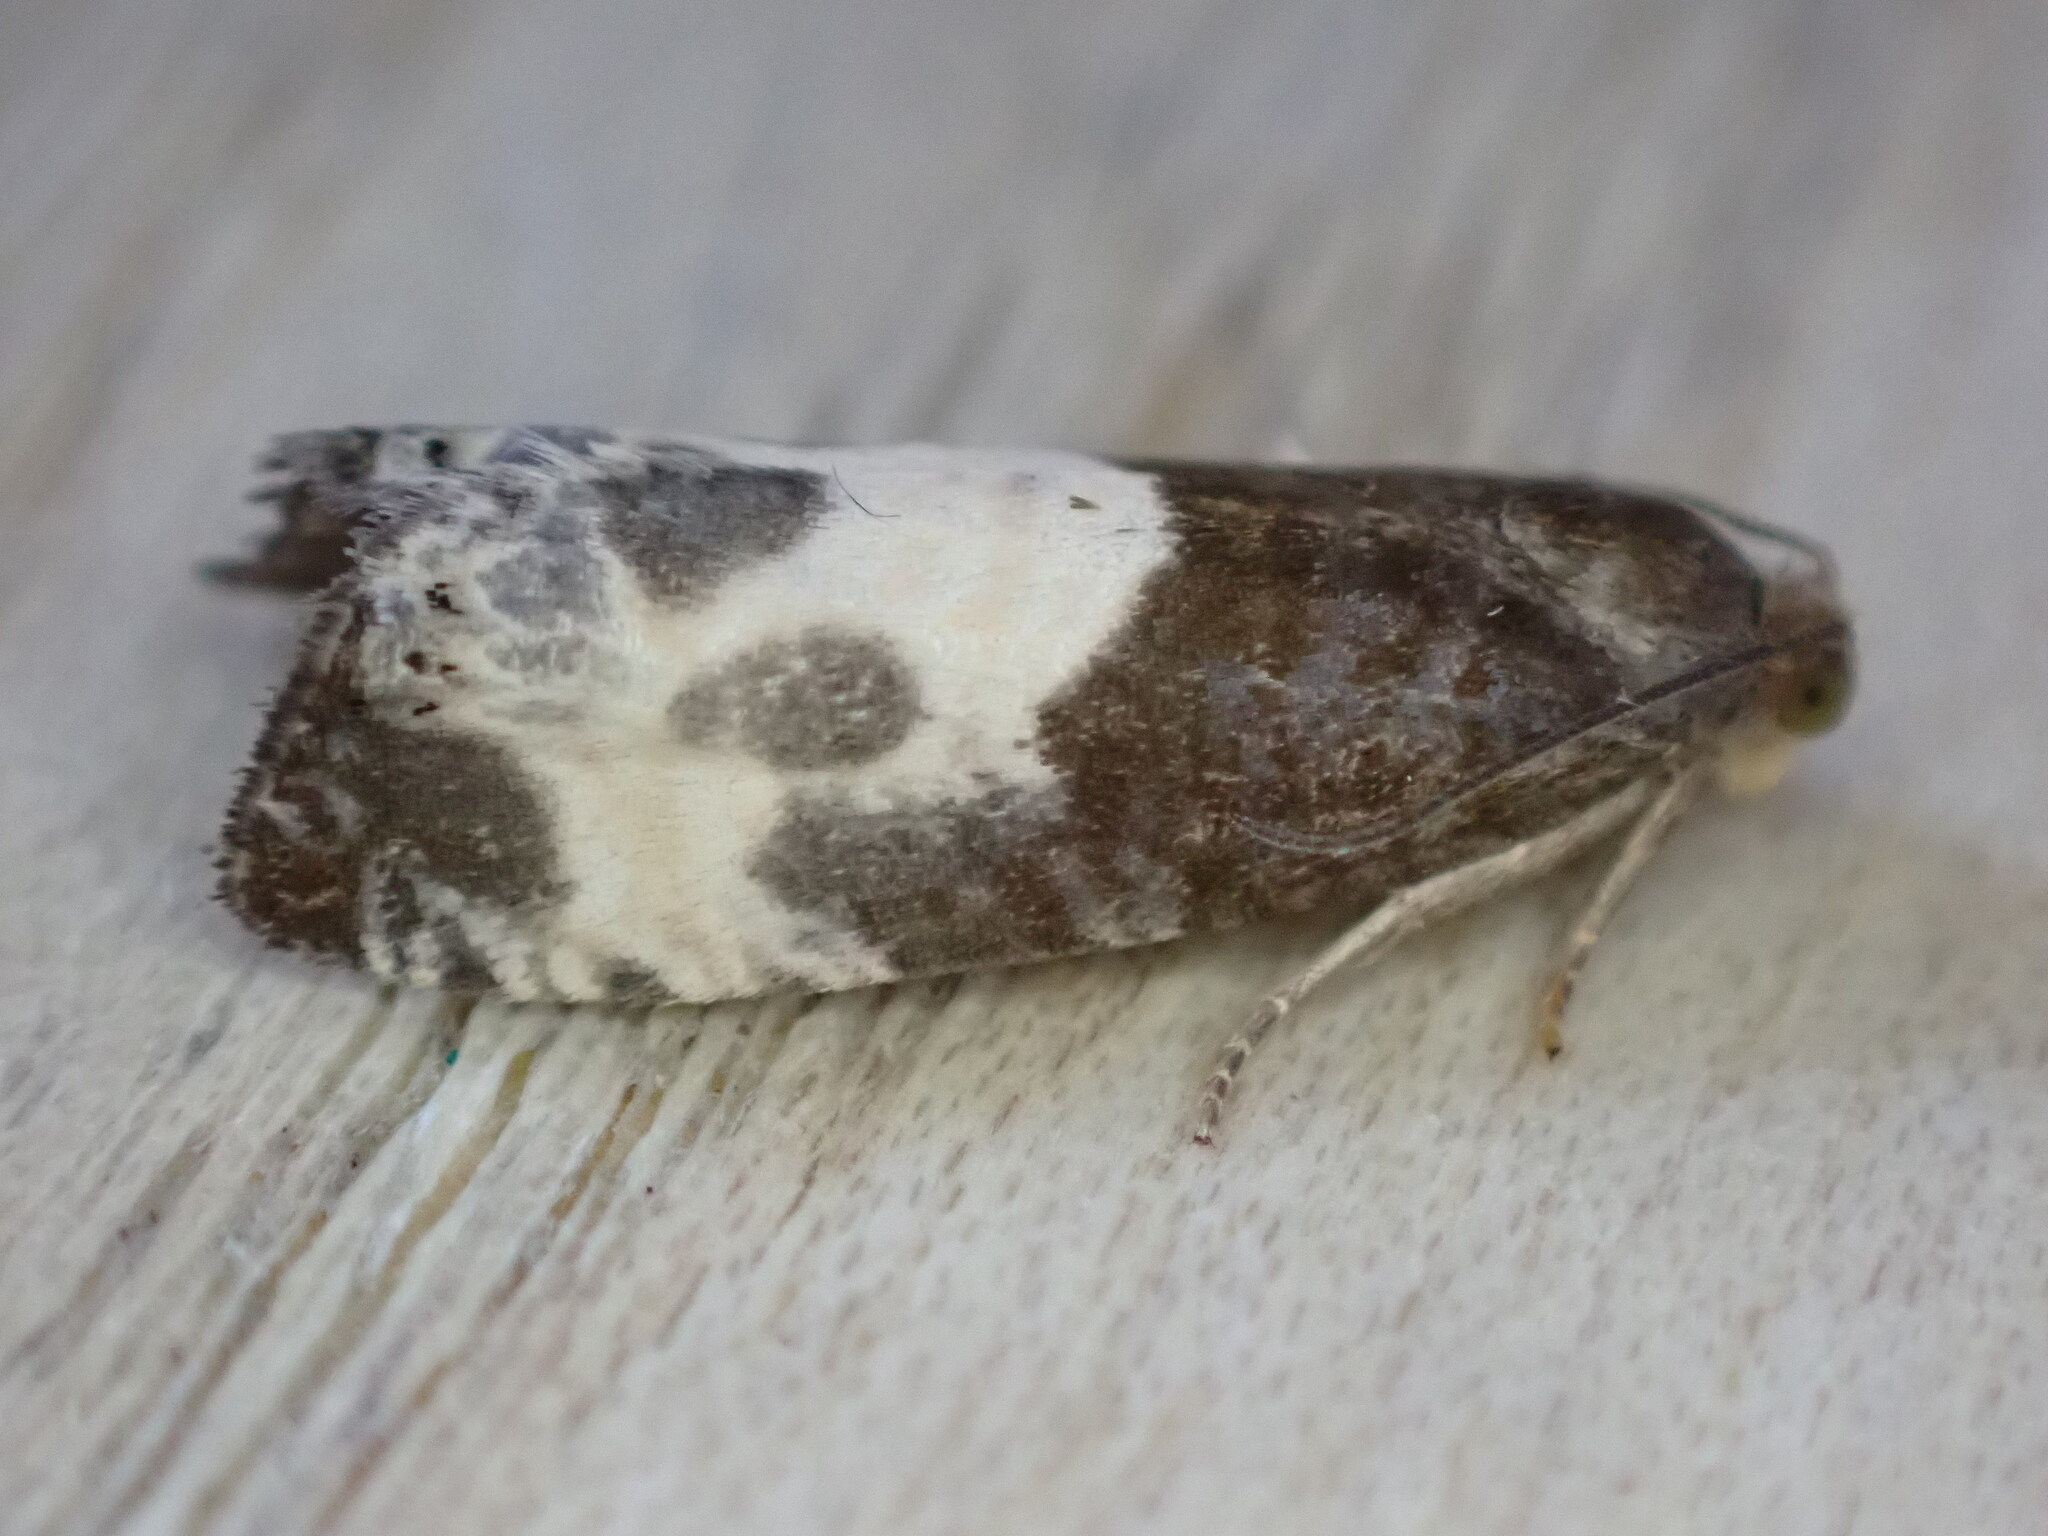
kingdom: Animalia
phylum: Arthropoda
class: Insecta
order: Lepidoptera
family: Tortricidae
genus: Notocelia
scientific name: Notocelia cynosbatella
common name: Yellow-faced bell moth
